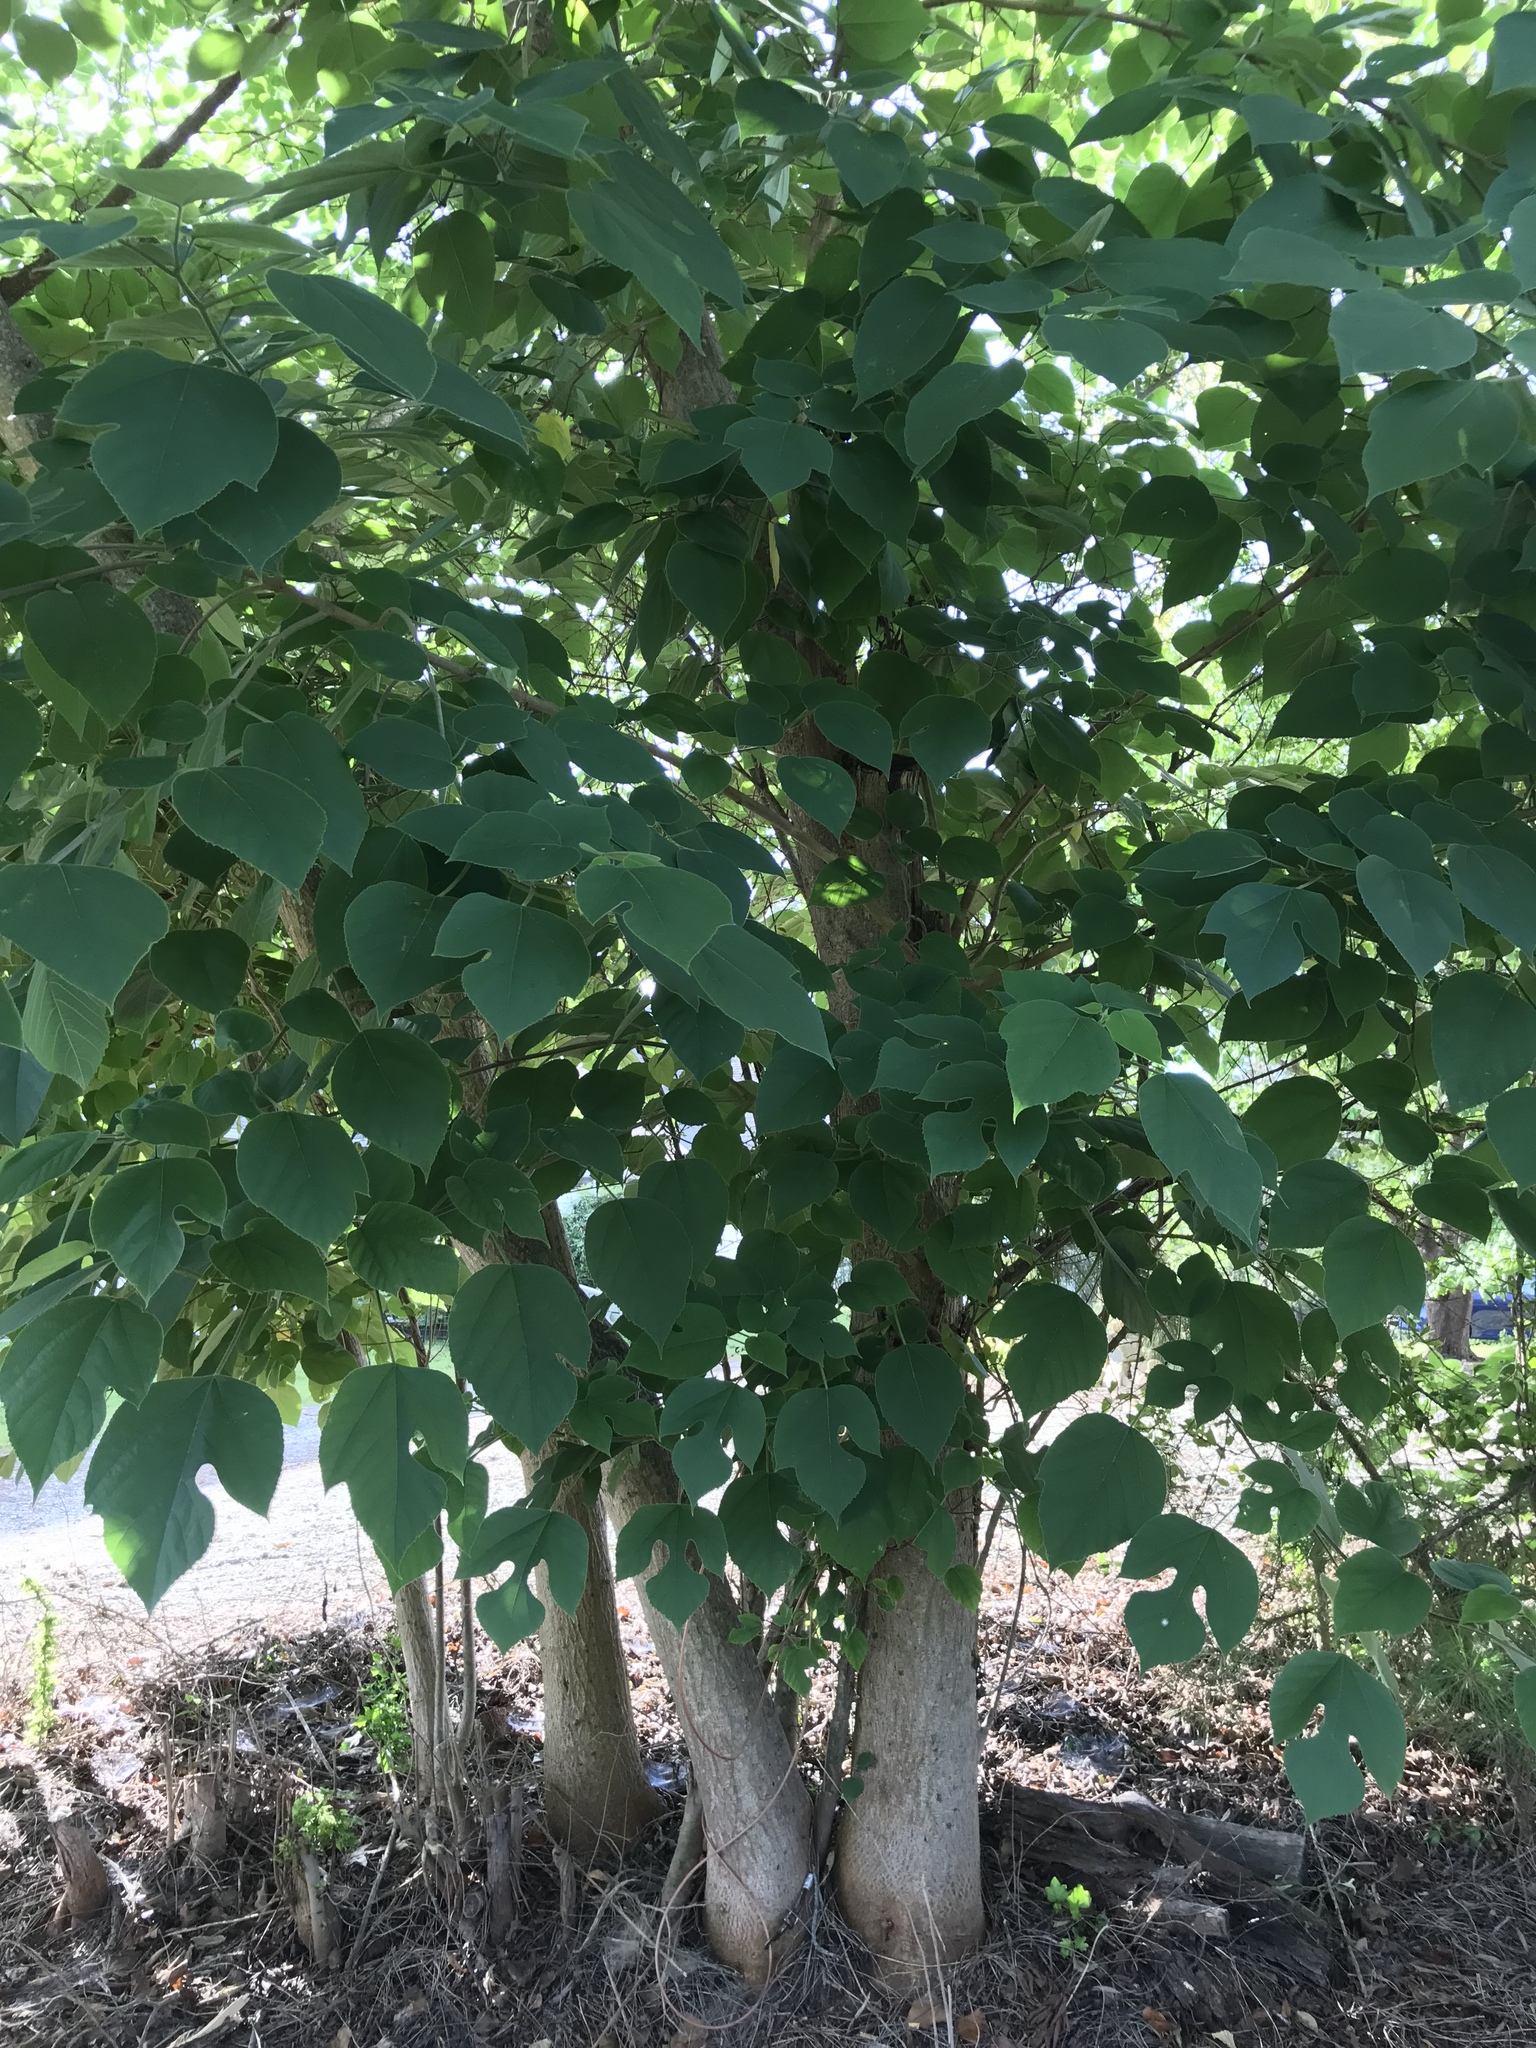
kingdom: Plantae
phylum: Tracheophyta
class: Magnoliopsida
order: Rosales
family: Moraceae
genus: Broussonetia
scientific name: Broussonetia papyrifera
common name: Paper mulberry
